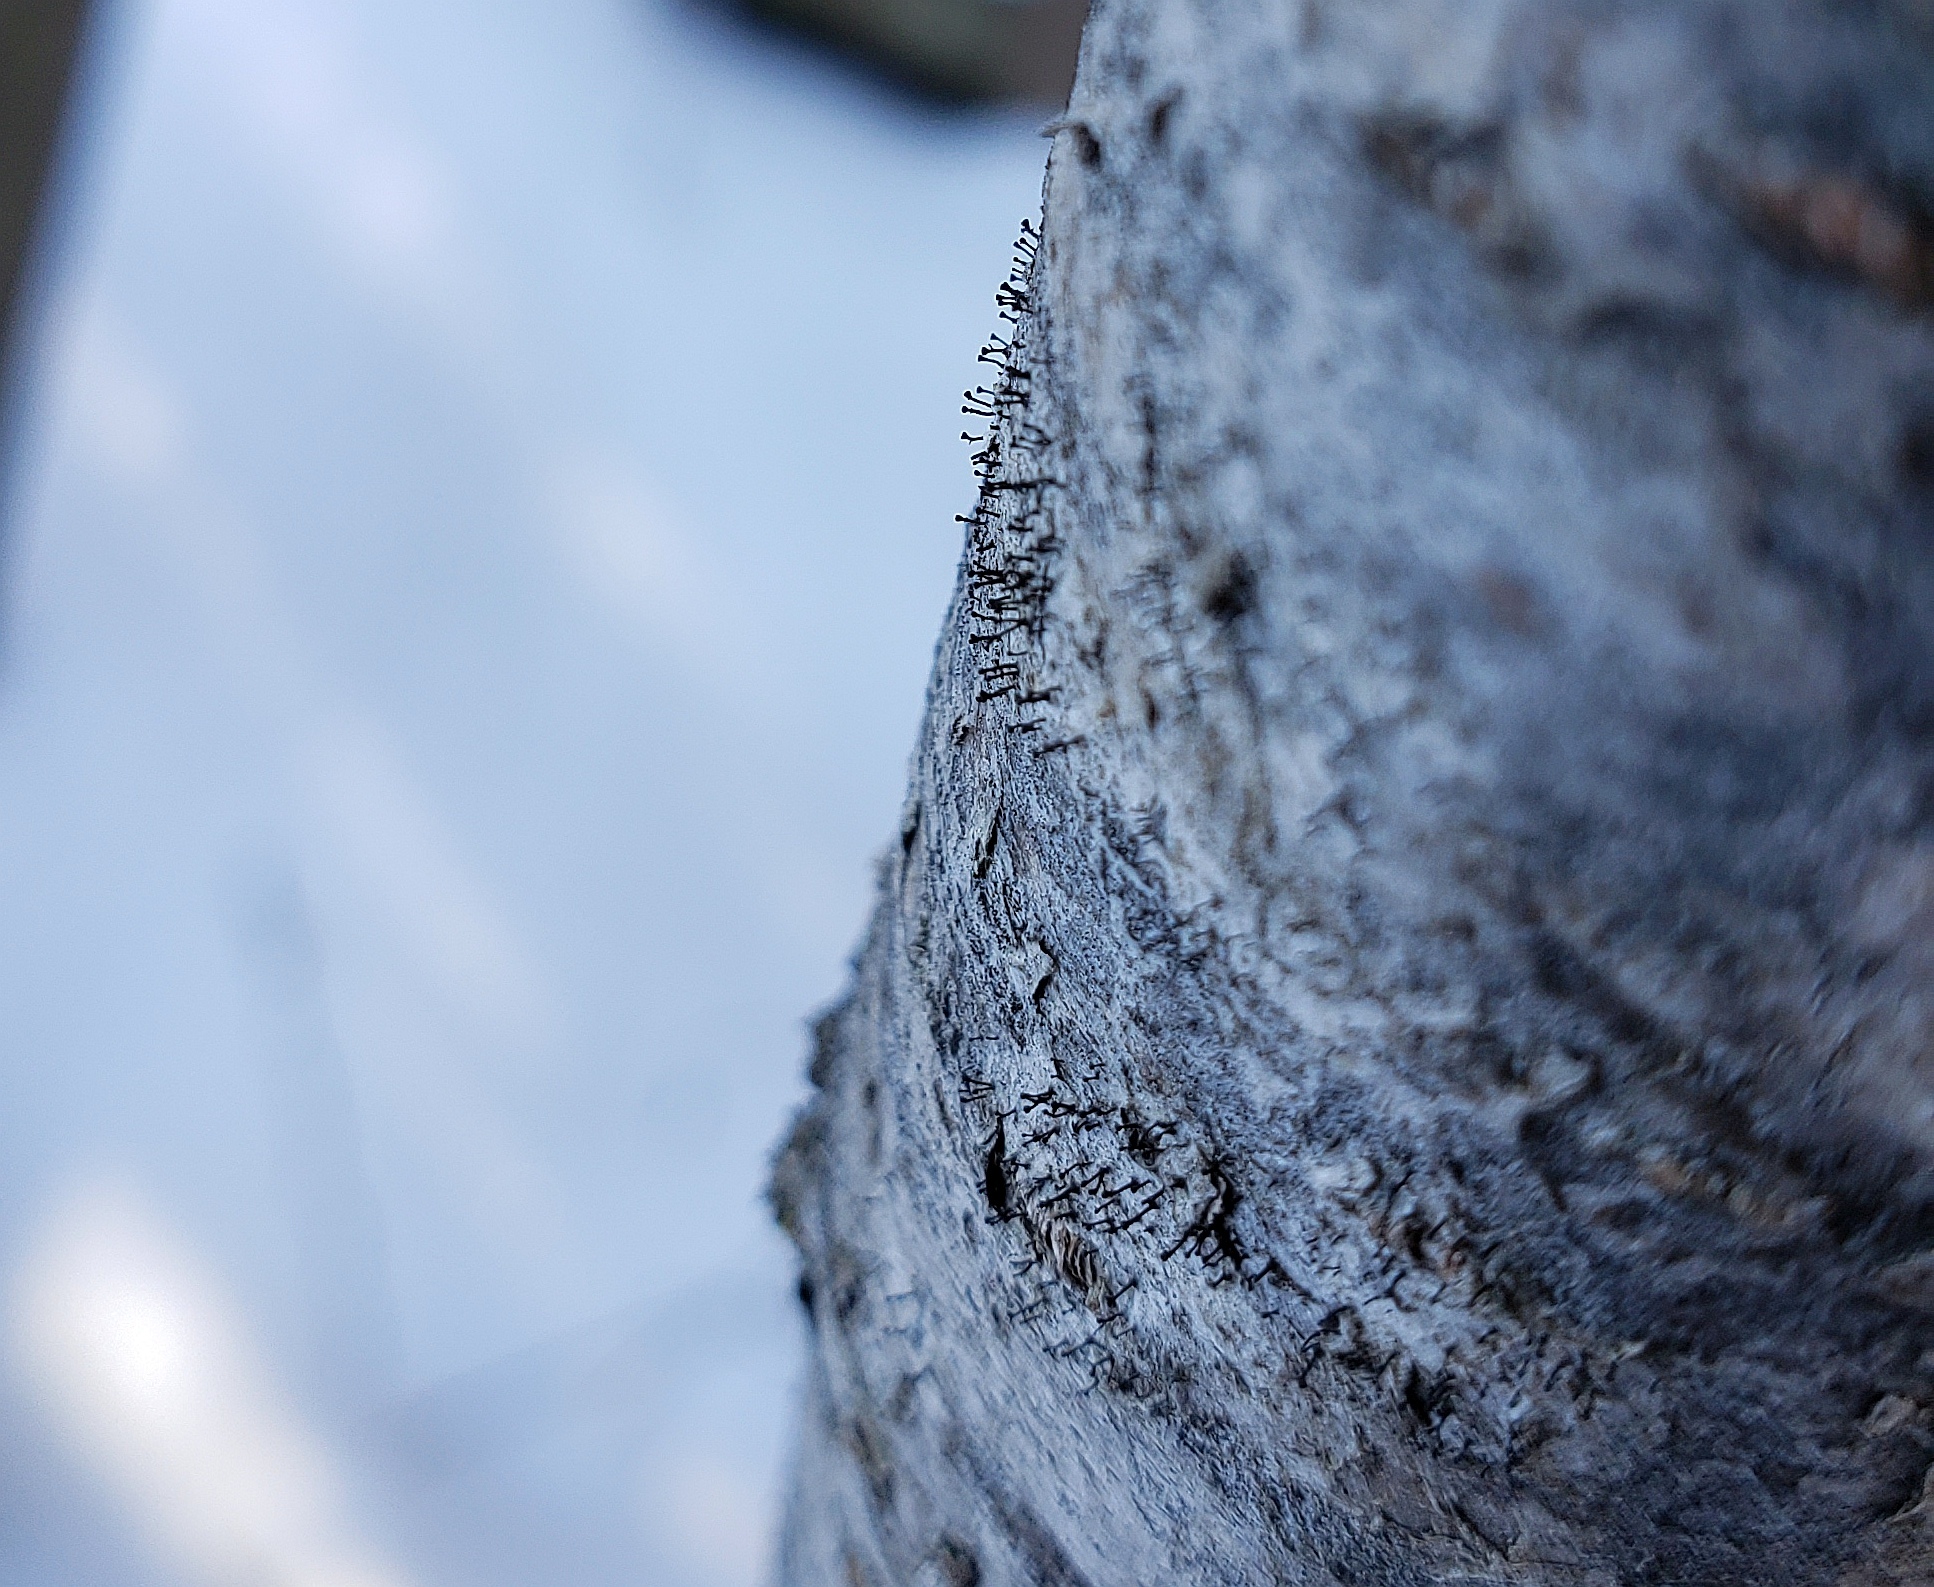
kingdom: Fungi
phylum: Ascomycota
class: Eurotiomycetes
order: Mycocaliciales
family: Mycocaliciaceae
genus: Phaeocalicium
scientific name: Phaeocalicium curtisii
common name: Sumac needles
